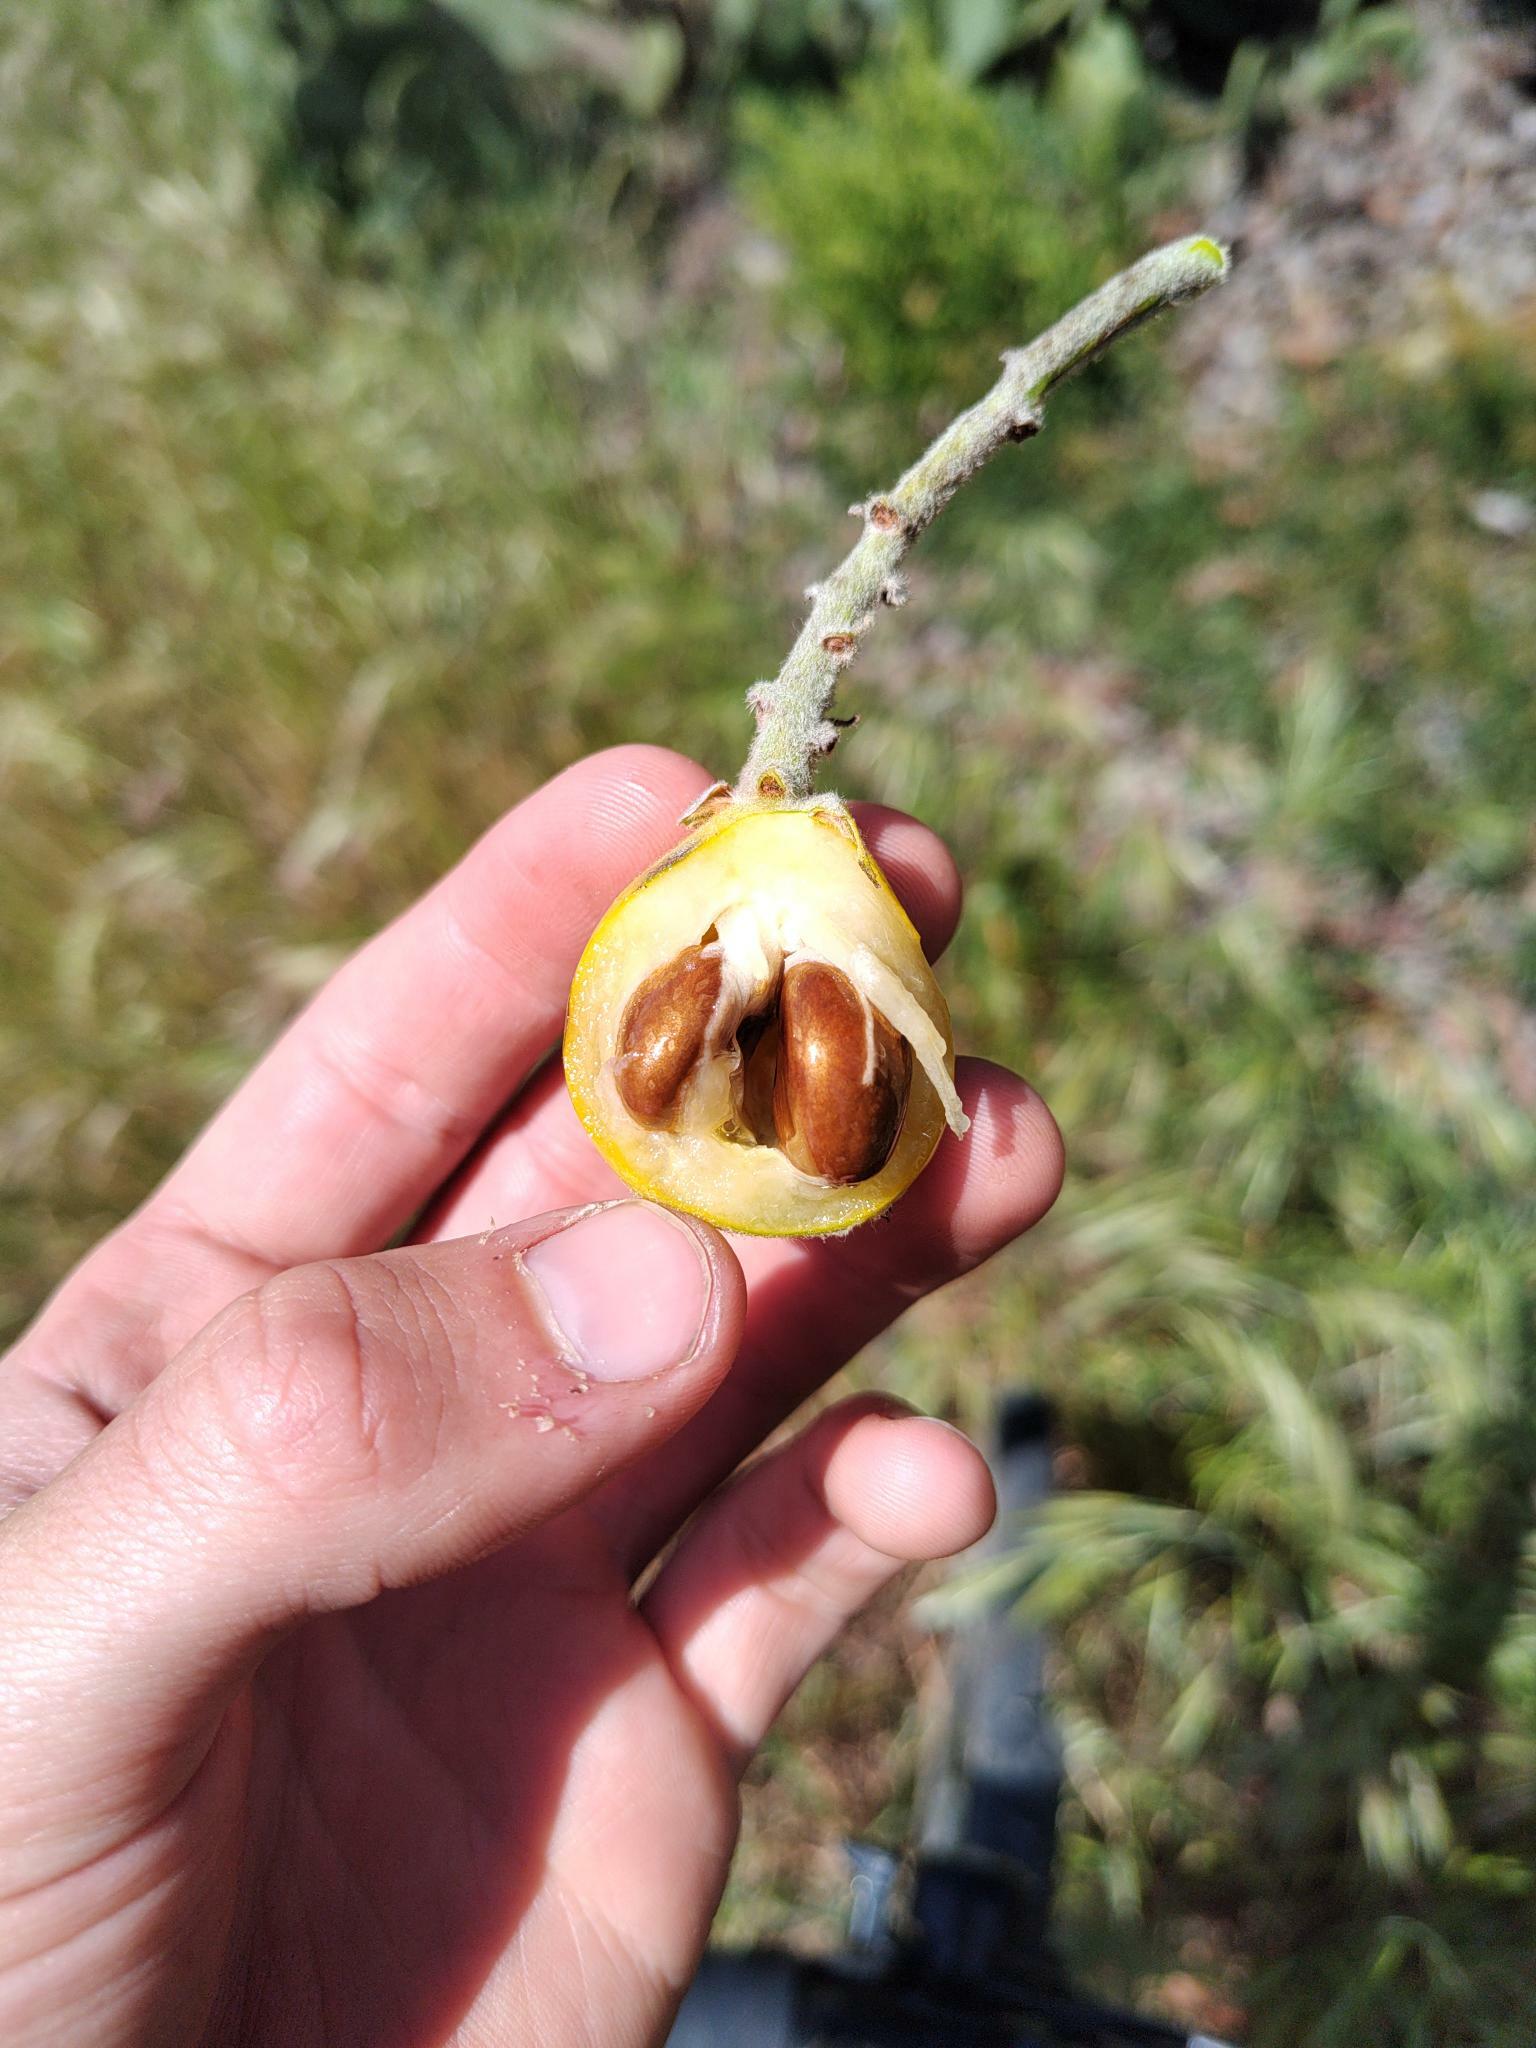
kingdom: Plantae
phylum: Tracheophyta
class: Magnoliopsida
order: Rosales
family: Rosaceae
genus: Rhaphiolepis
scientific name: Rhaphiolepis bibas
